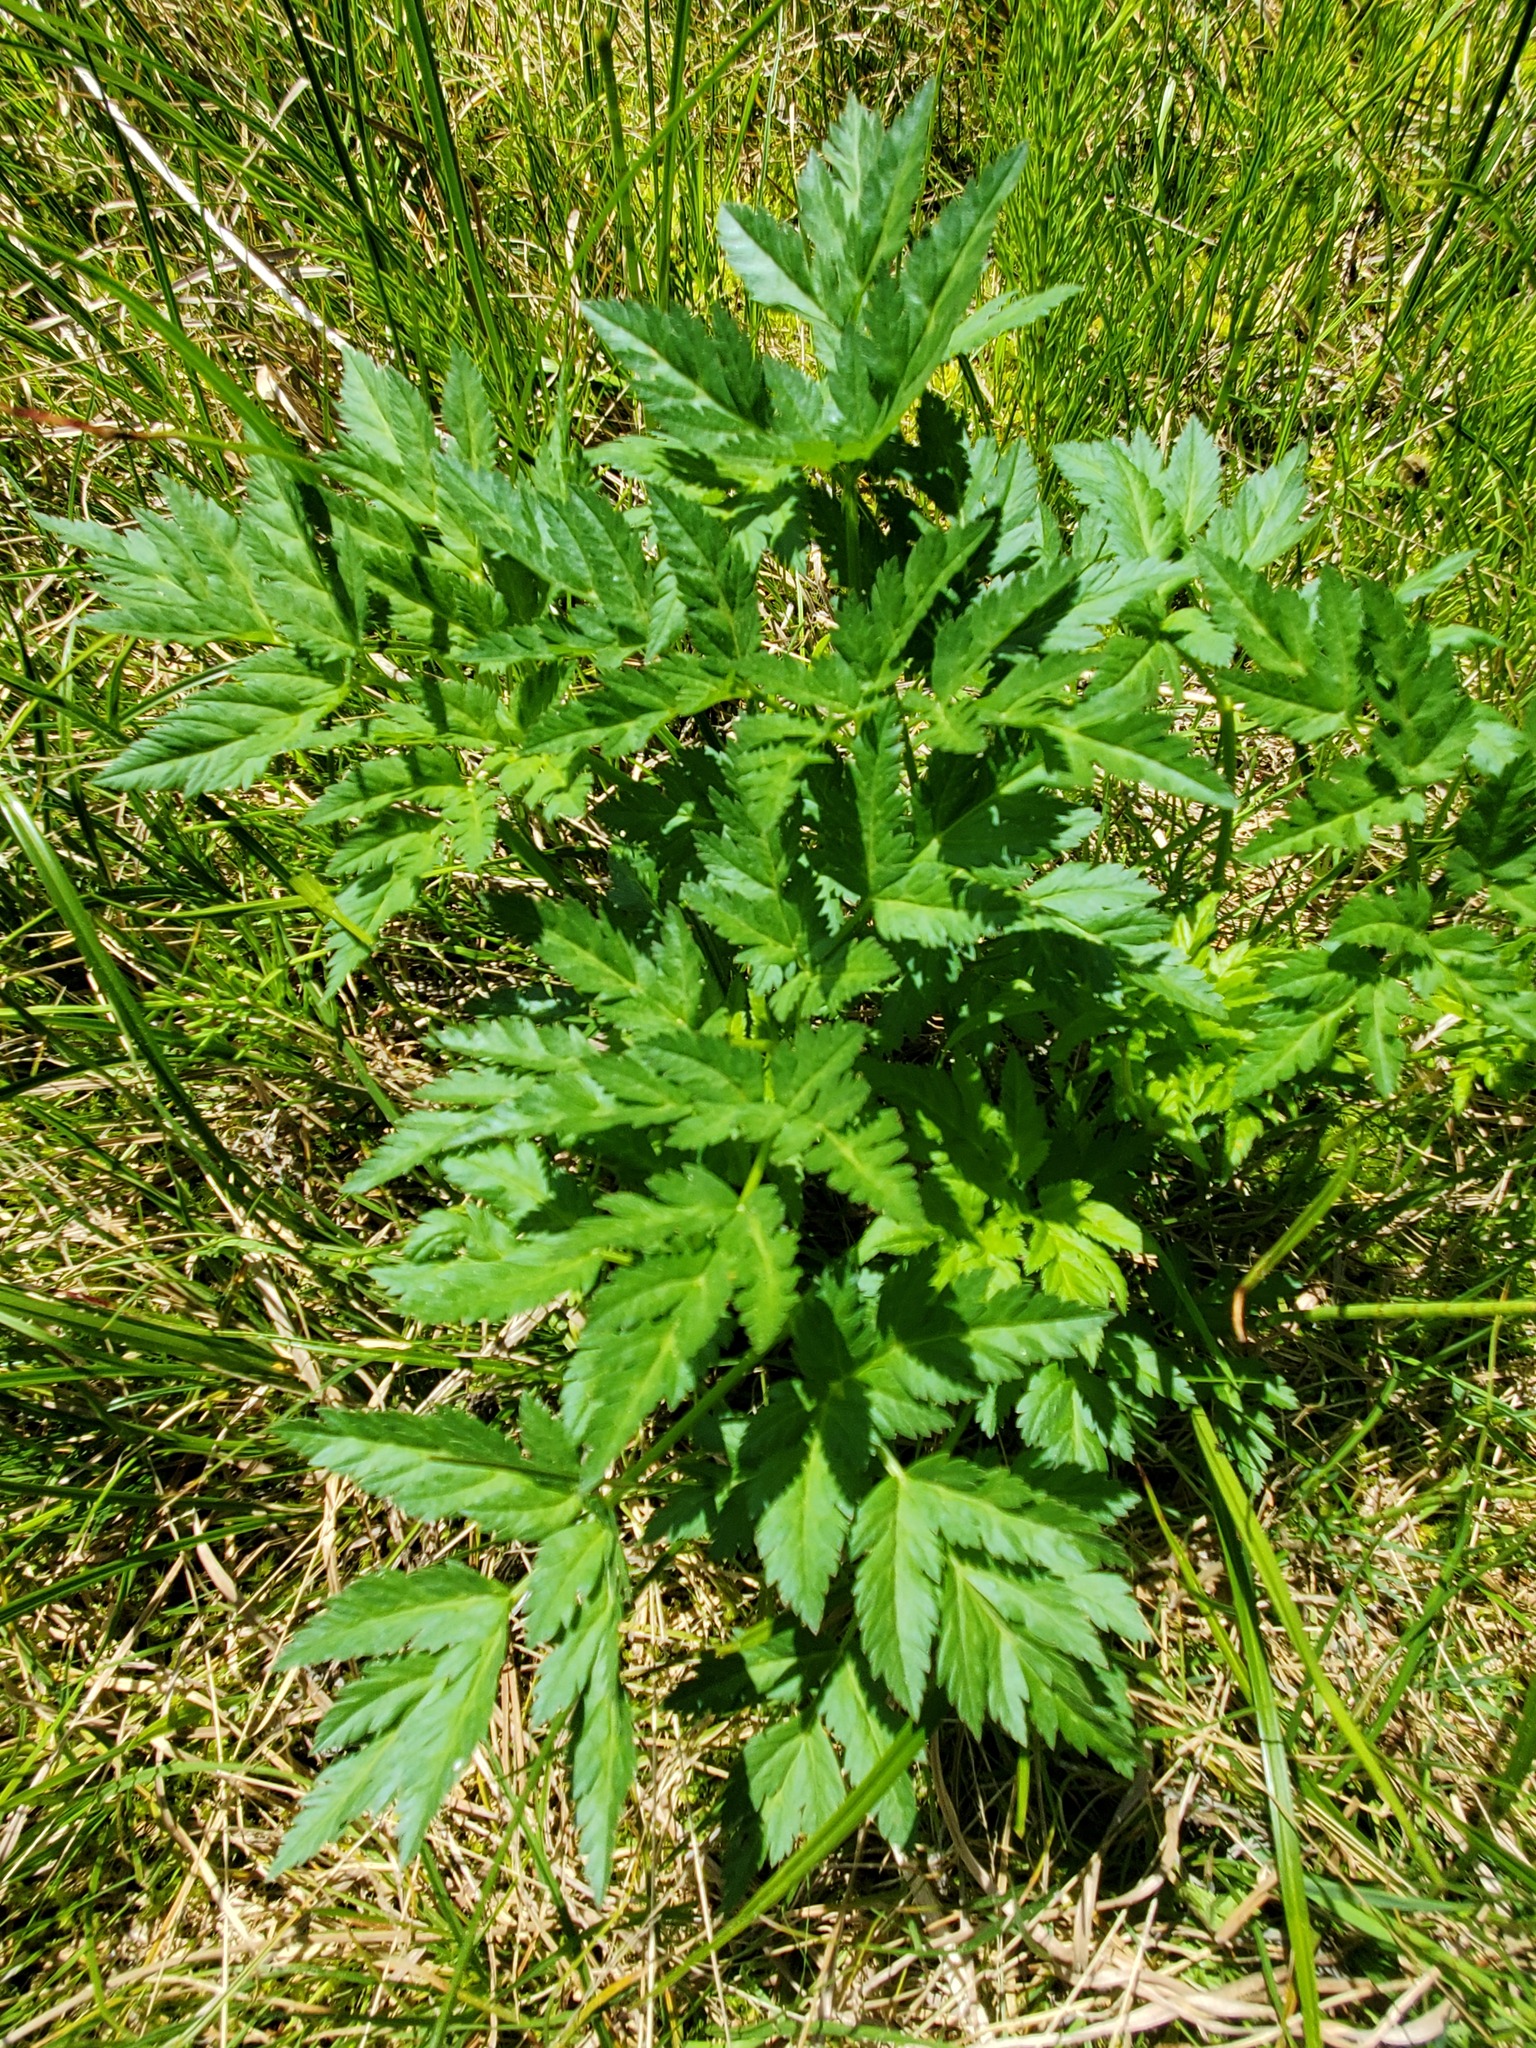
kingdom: Plantae
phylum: Tracheophyta
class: Magnoliopsida
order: Apiales
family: Apiaceae
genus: Ligusticum
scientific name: Ligusticum canbyi
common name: Canby’s licorice-root
